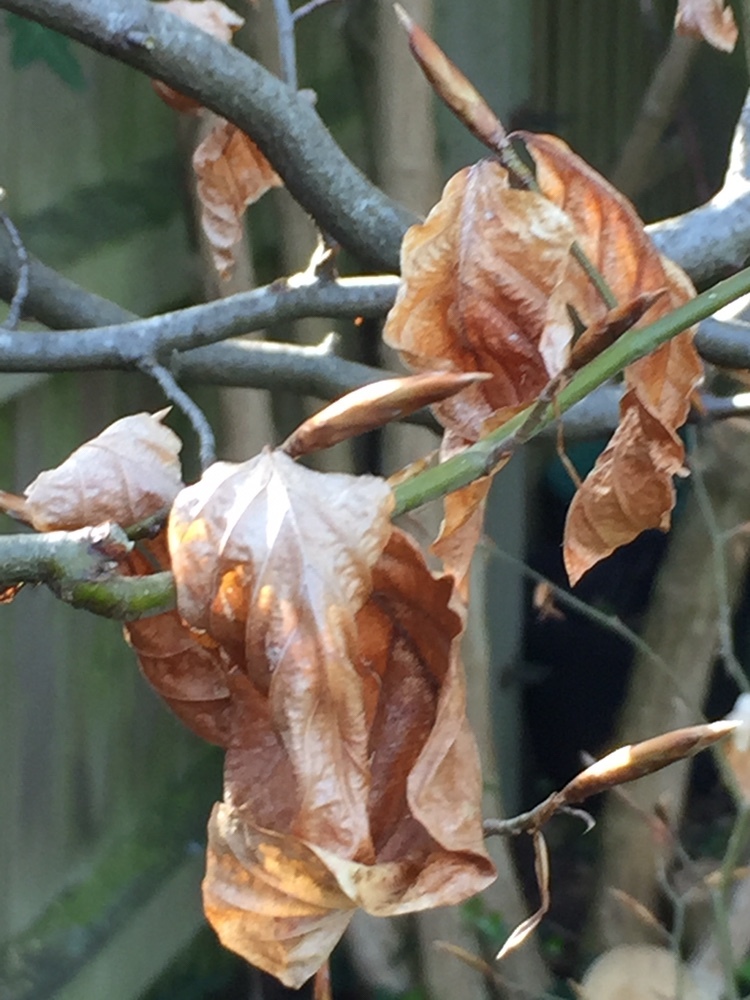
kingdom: Plantae
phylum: Tracheophyta
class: Magnoliopsida
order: Fagales
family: Fagaceae
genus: Fagus
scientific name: Fagus sylvatica
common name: Beech
